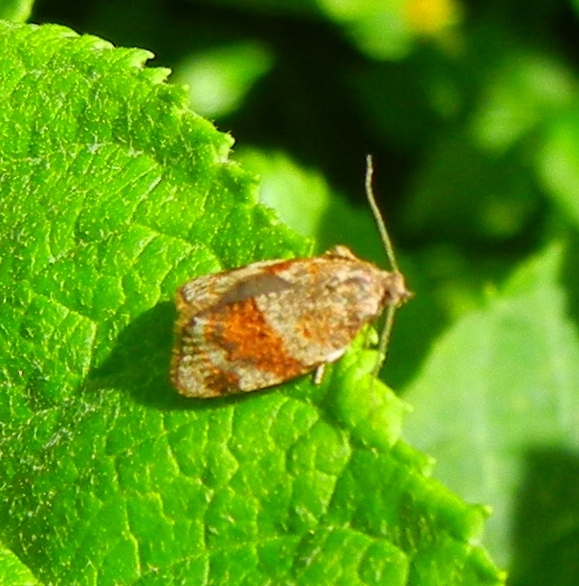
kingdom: Animalia
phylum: Arthropoda
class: Insecta
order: Lepidoptera
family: Tortricidae
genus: Syndemis
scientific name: Syndemis musculana
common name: Dark-barred twist
